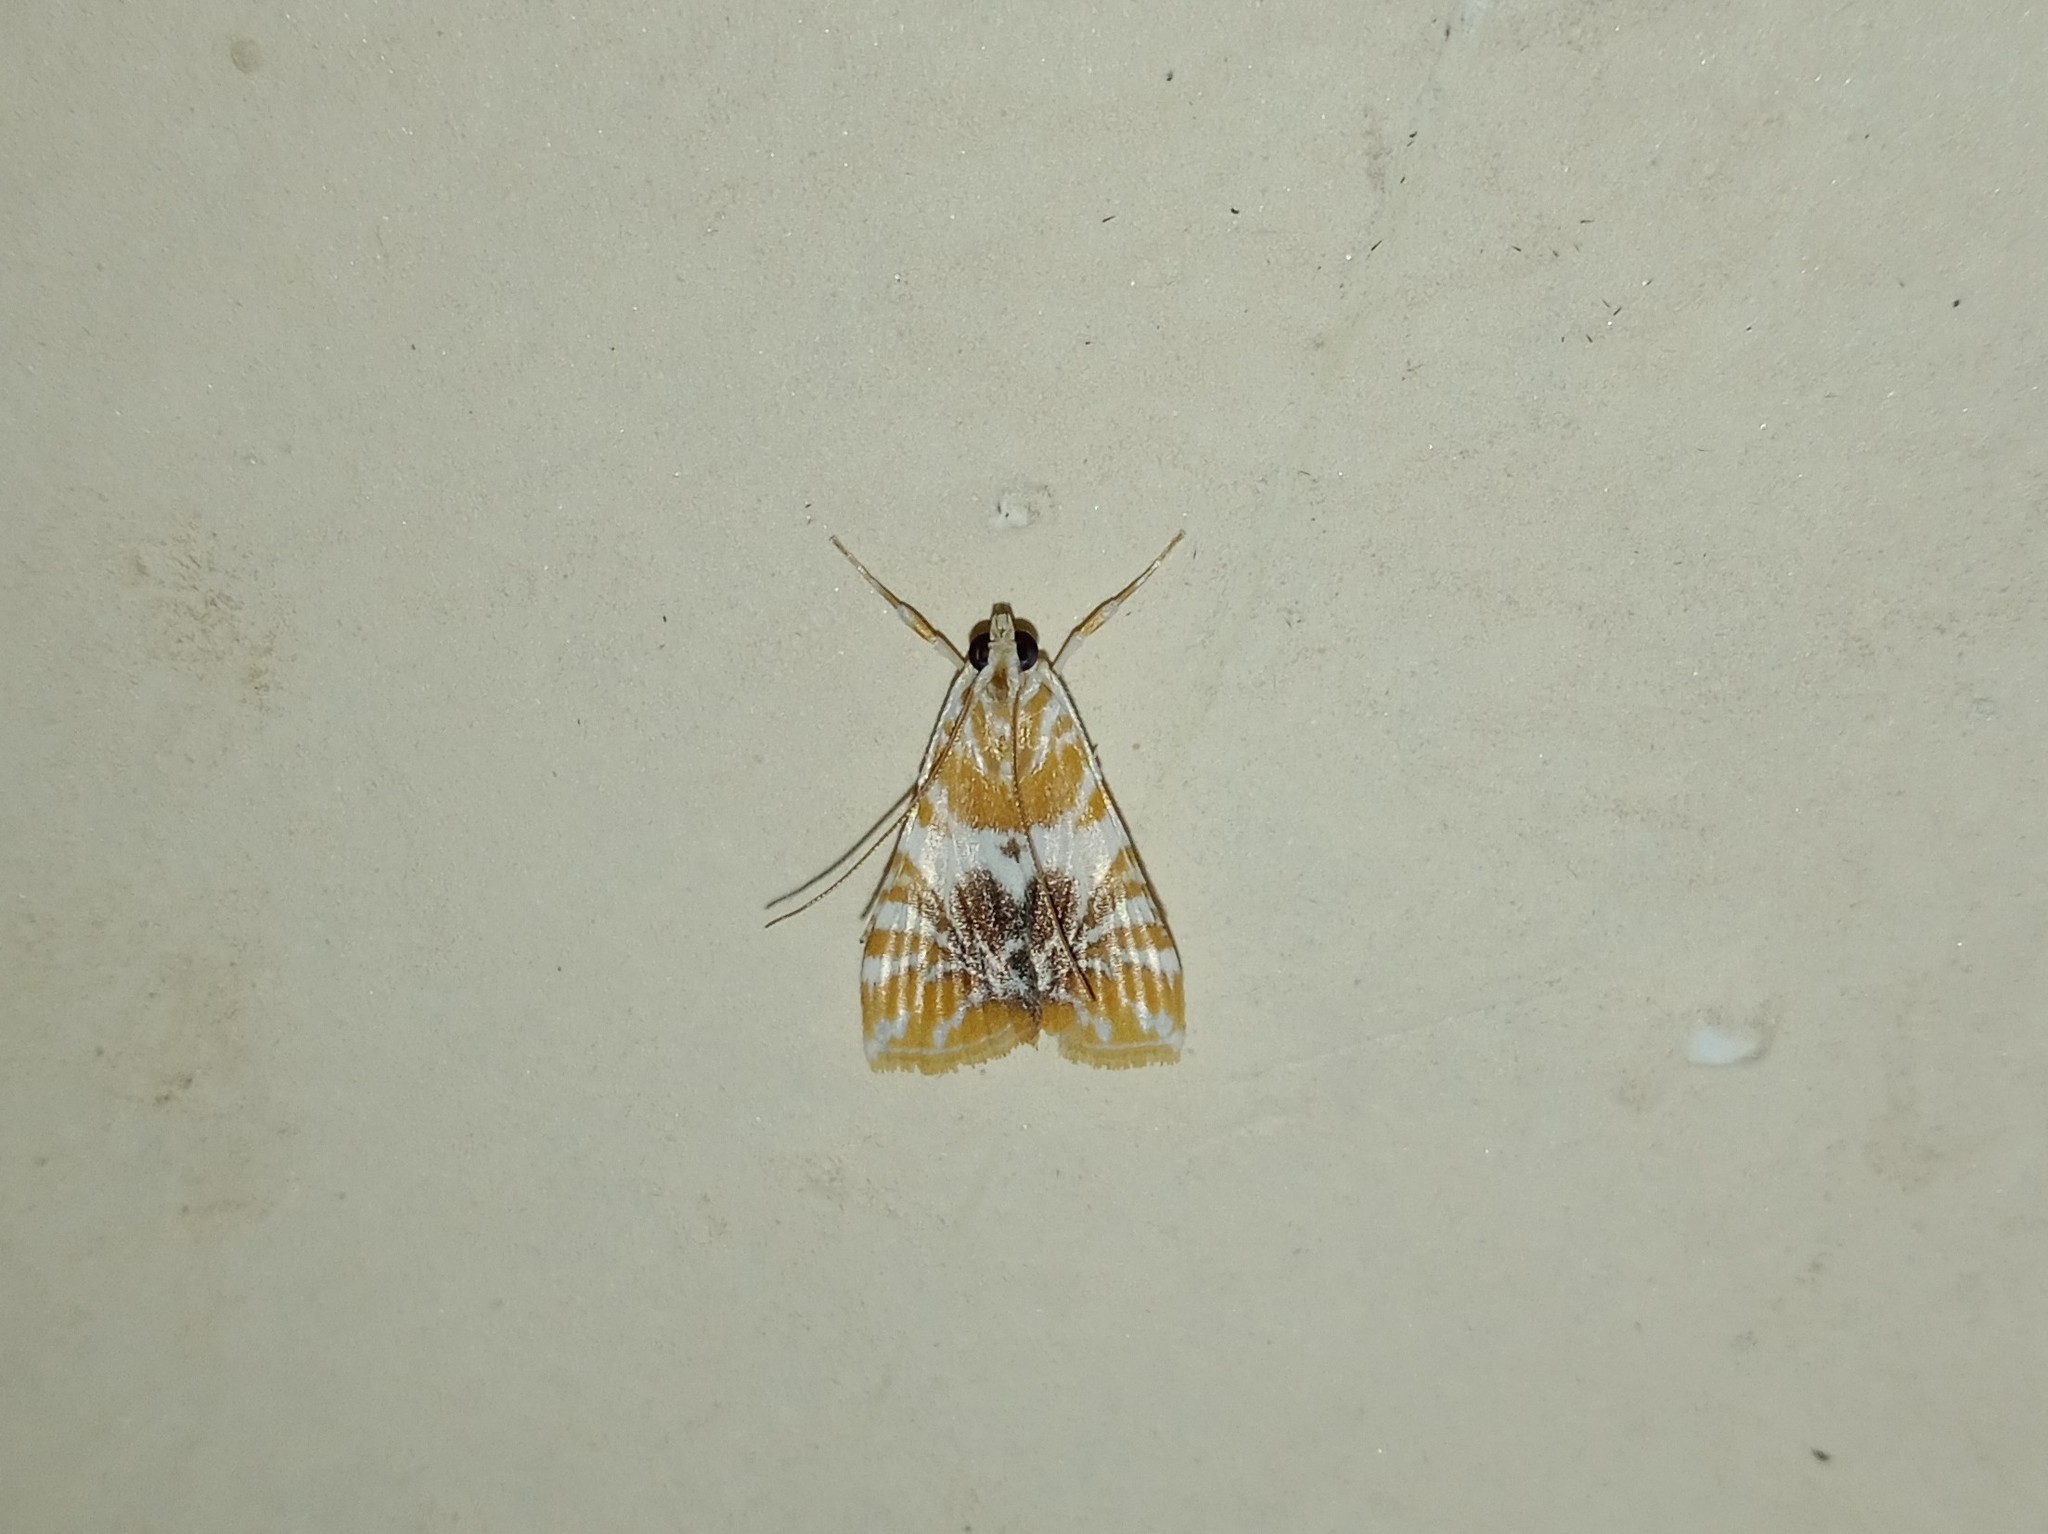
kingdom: Animalia
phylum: Arthropoda
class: Insecta
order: Lepidoptera
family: Crambidae
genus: Macaretaera
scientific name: Macaretaera hesperis
